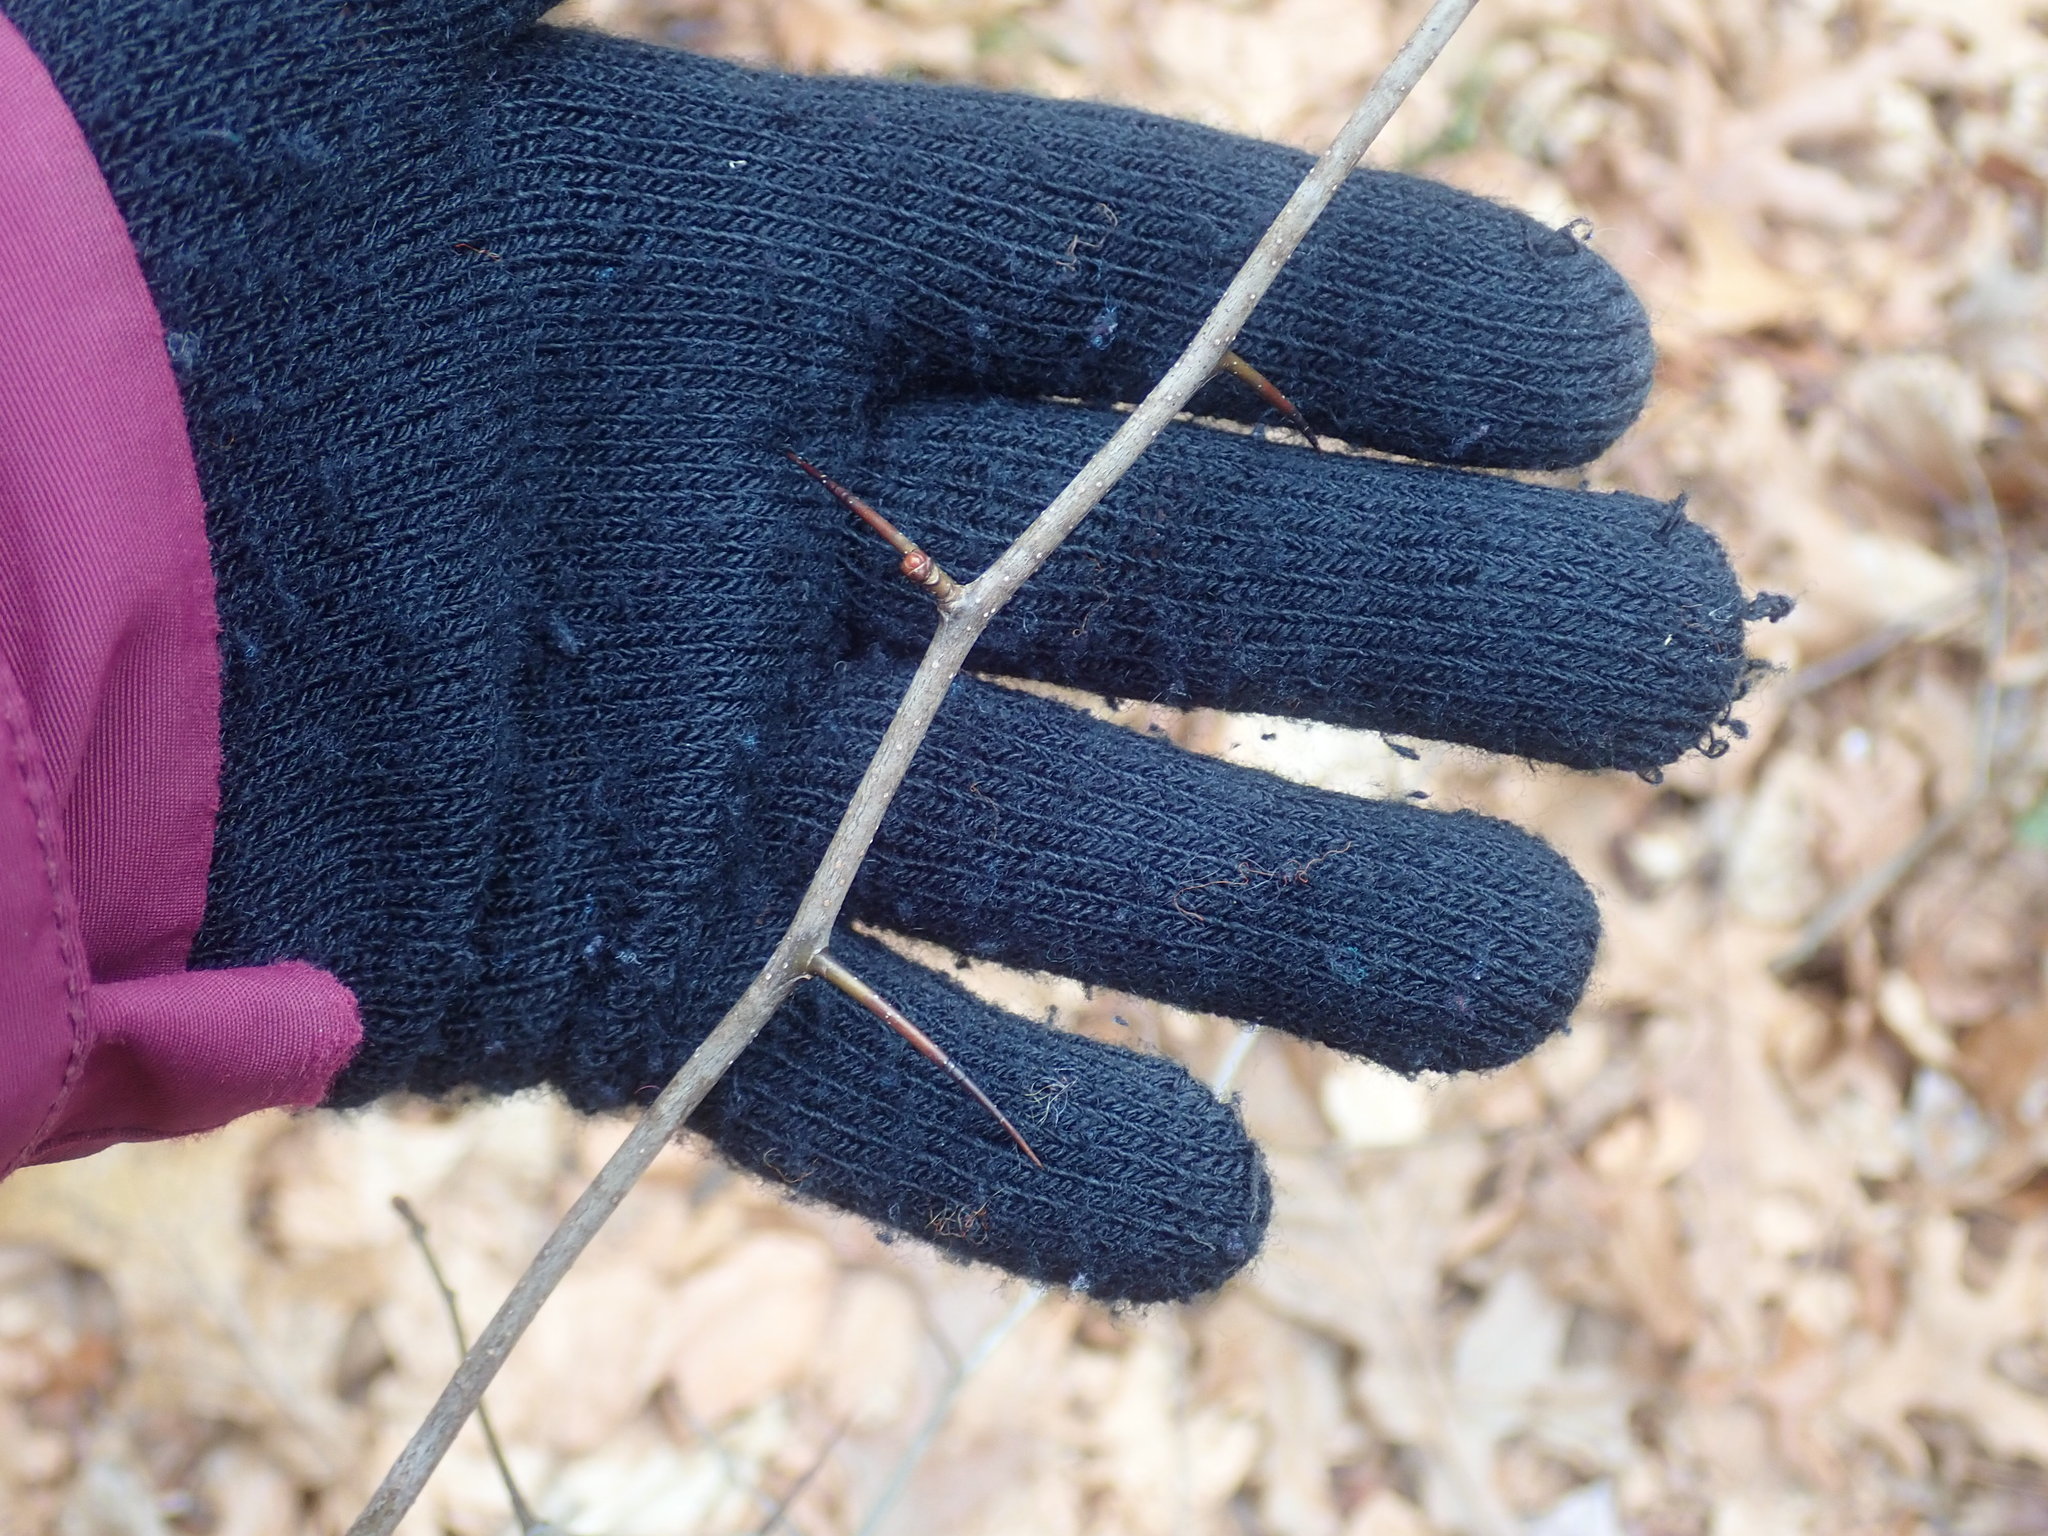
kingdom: Plantae
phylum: Tracheophyta
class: Magnoliopsida
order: Rosales
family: Rosaceae
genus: Crataegus
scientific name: Crataegus
